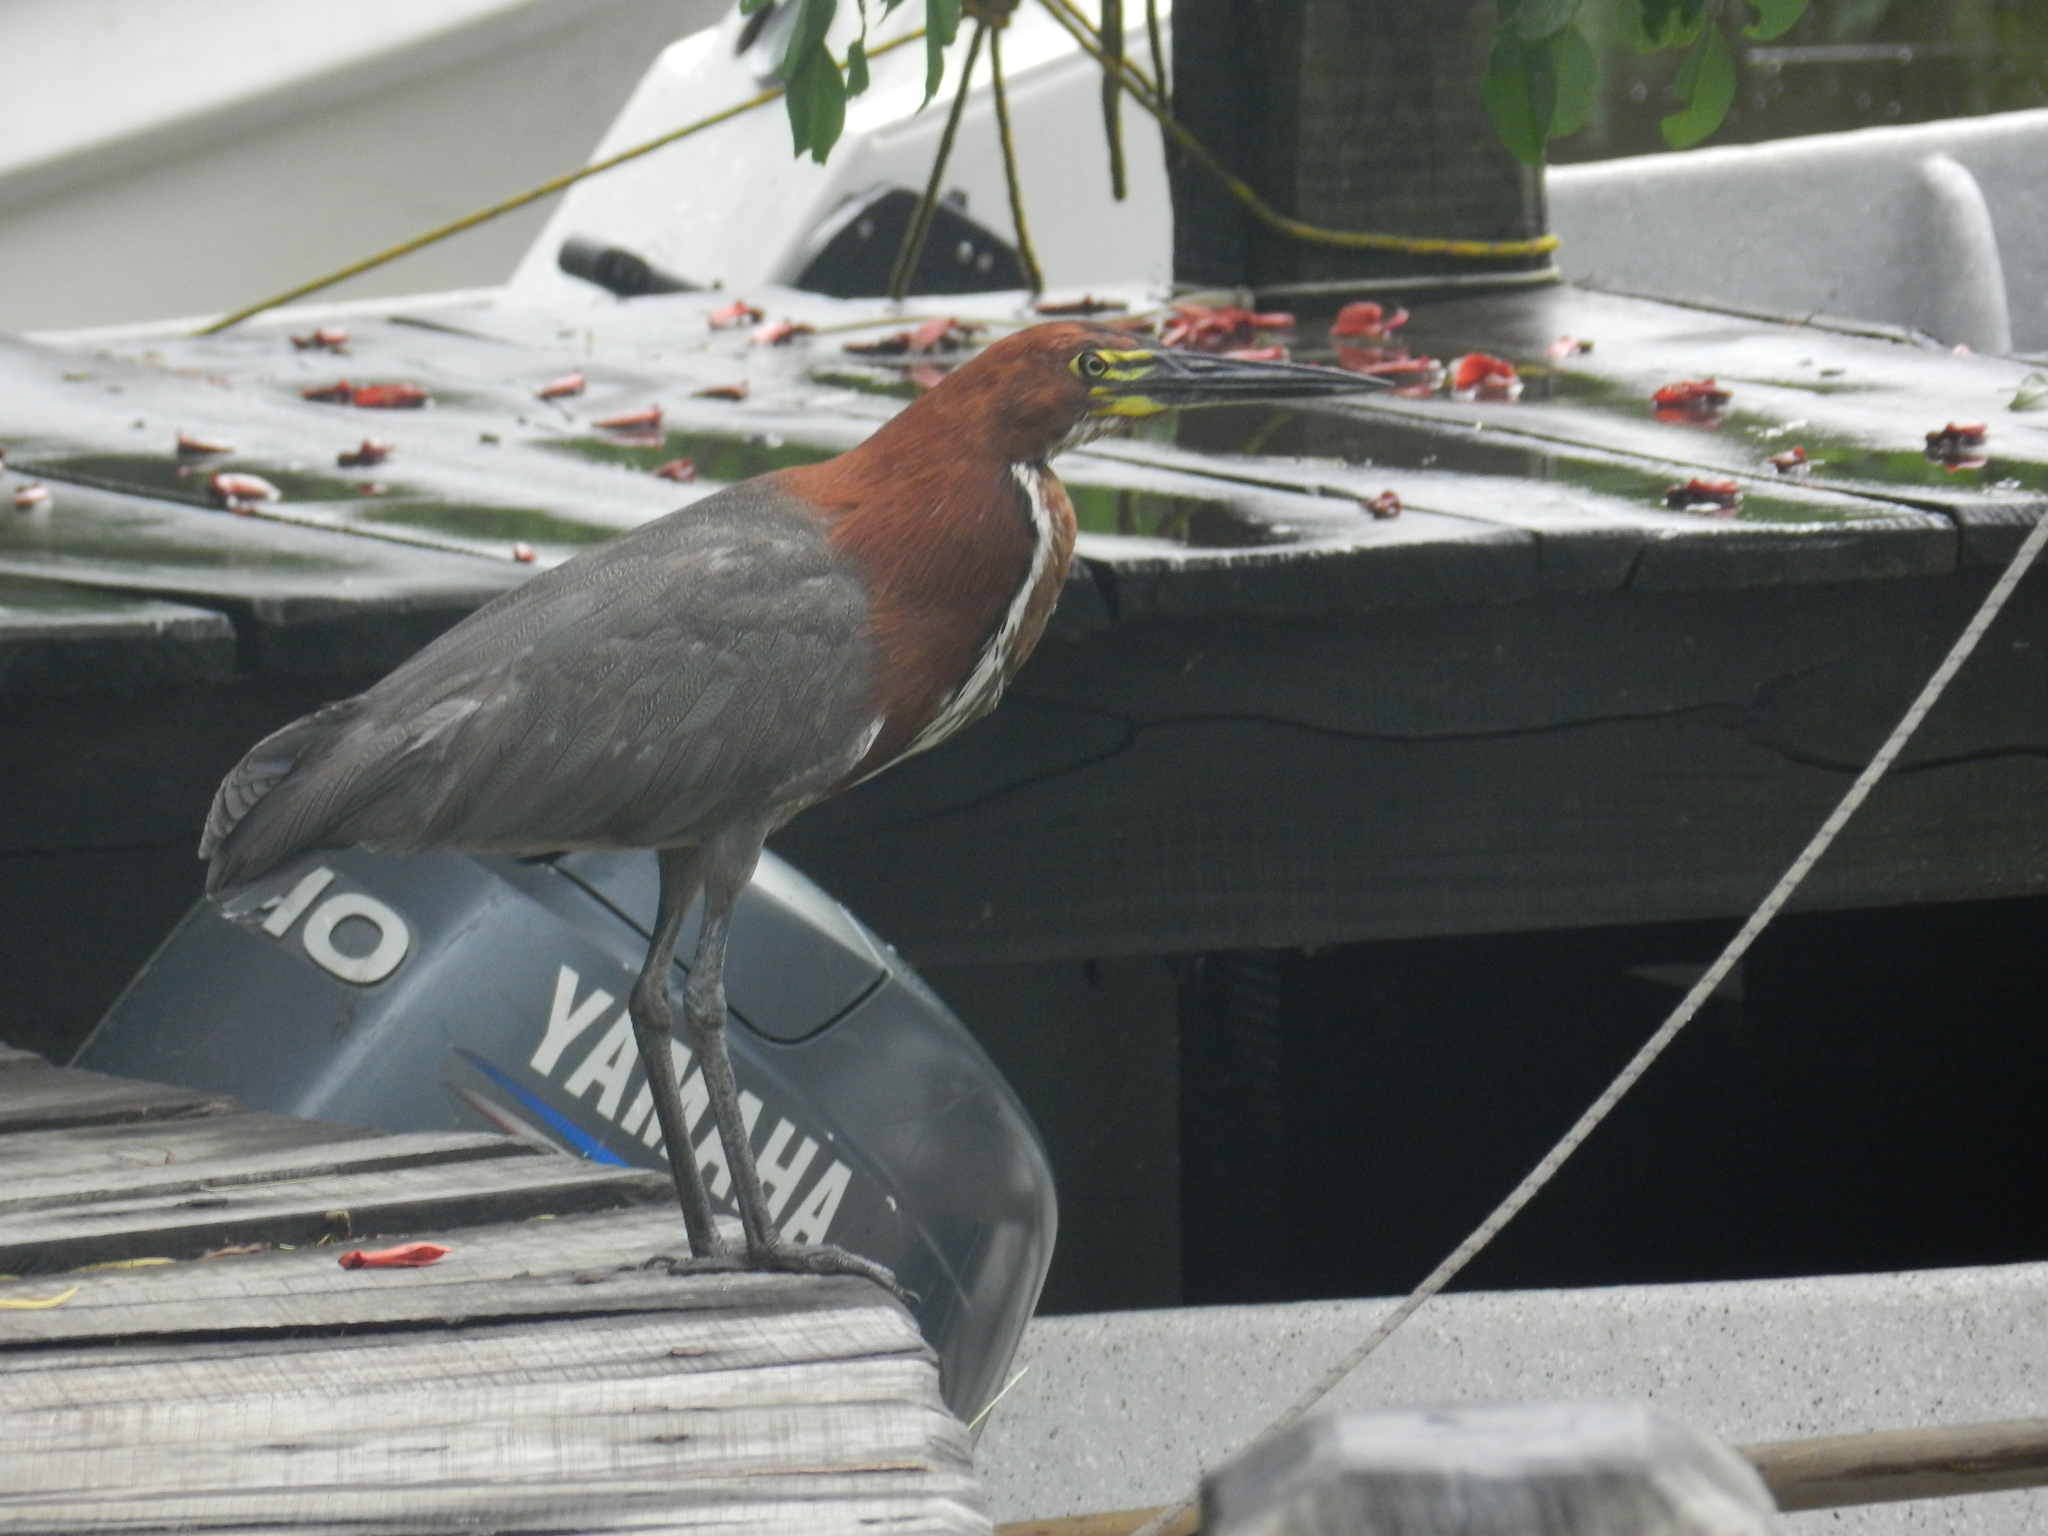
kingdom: Animalia
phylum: Chordata
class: Aves
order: Pelecaniformes
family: Ardeidae
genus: Tigrisoma
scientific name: Tigrisoma lineatum
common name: Rufescent tiger-heron
